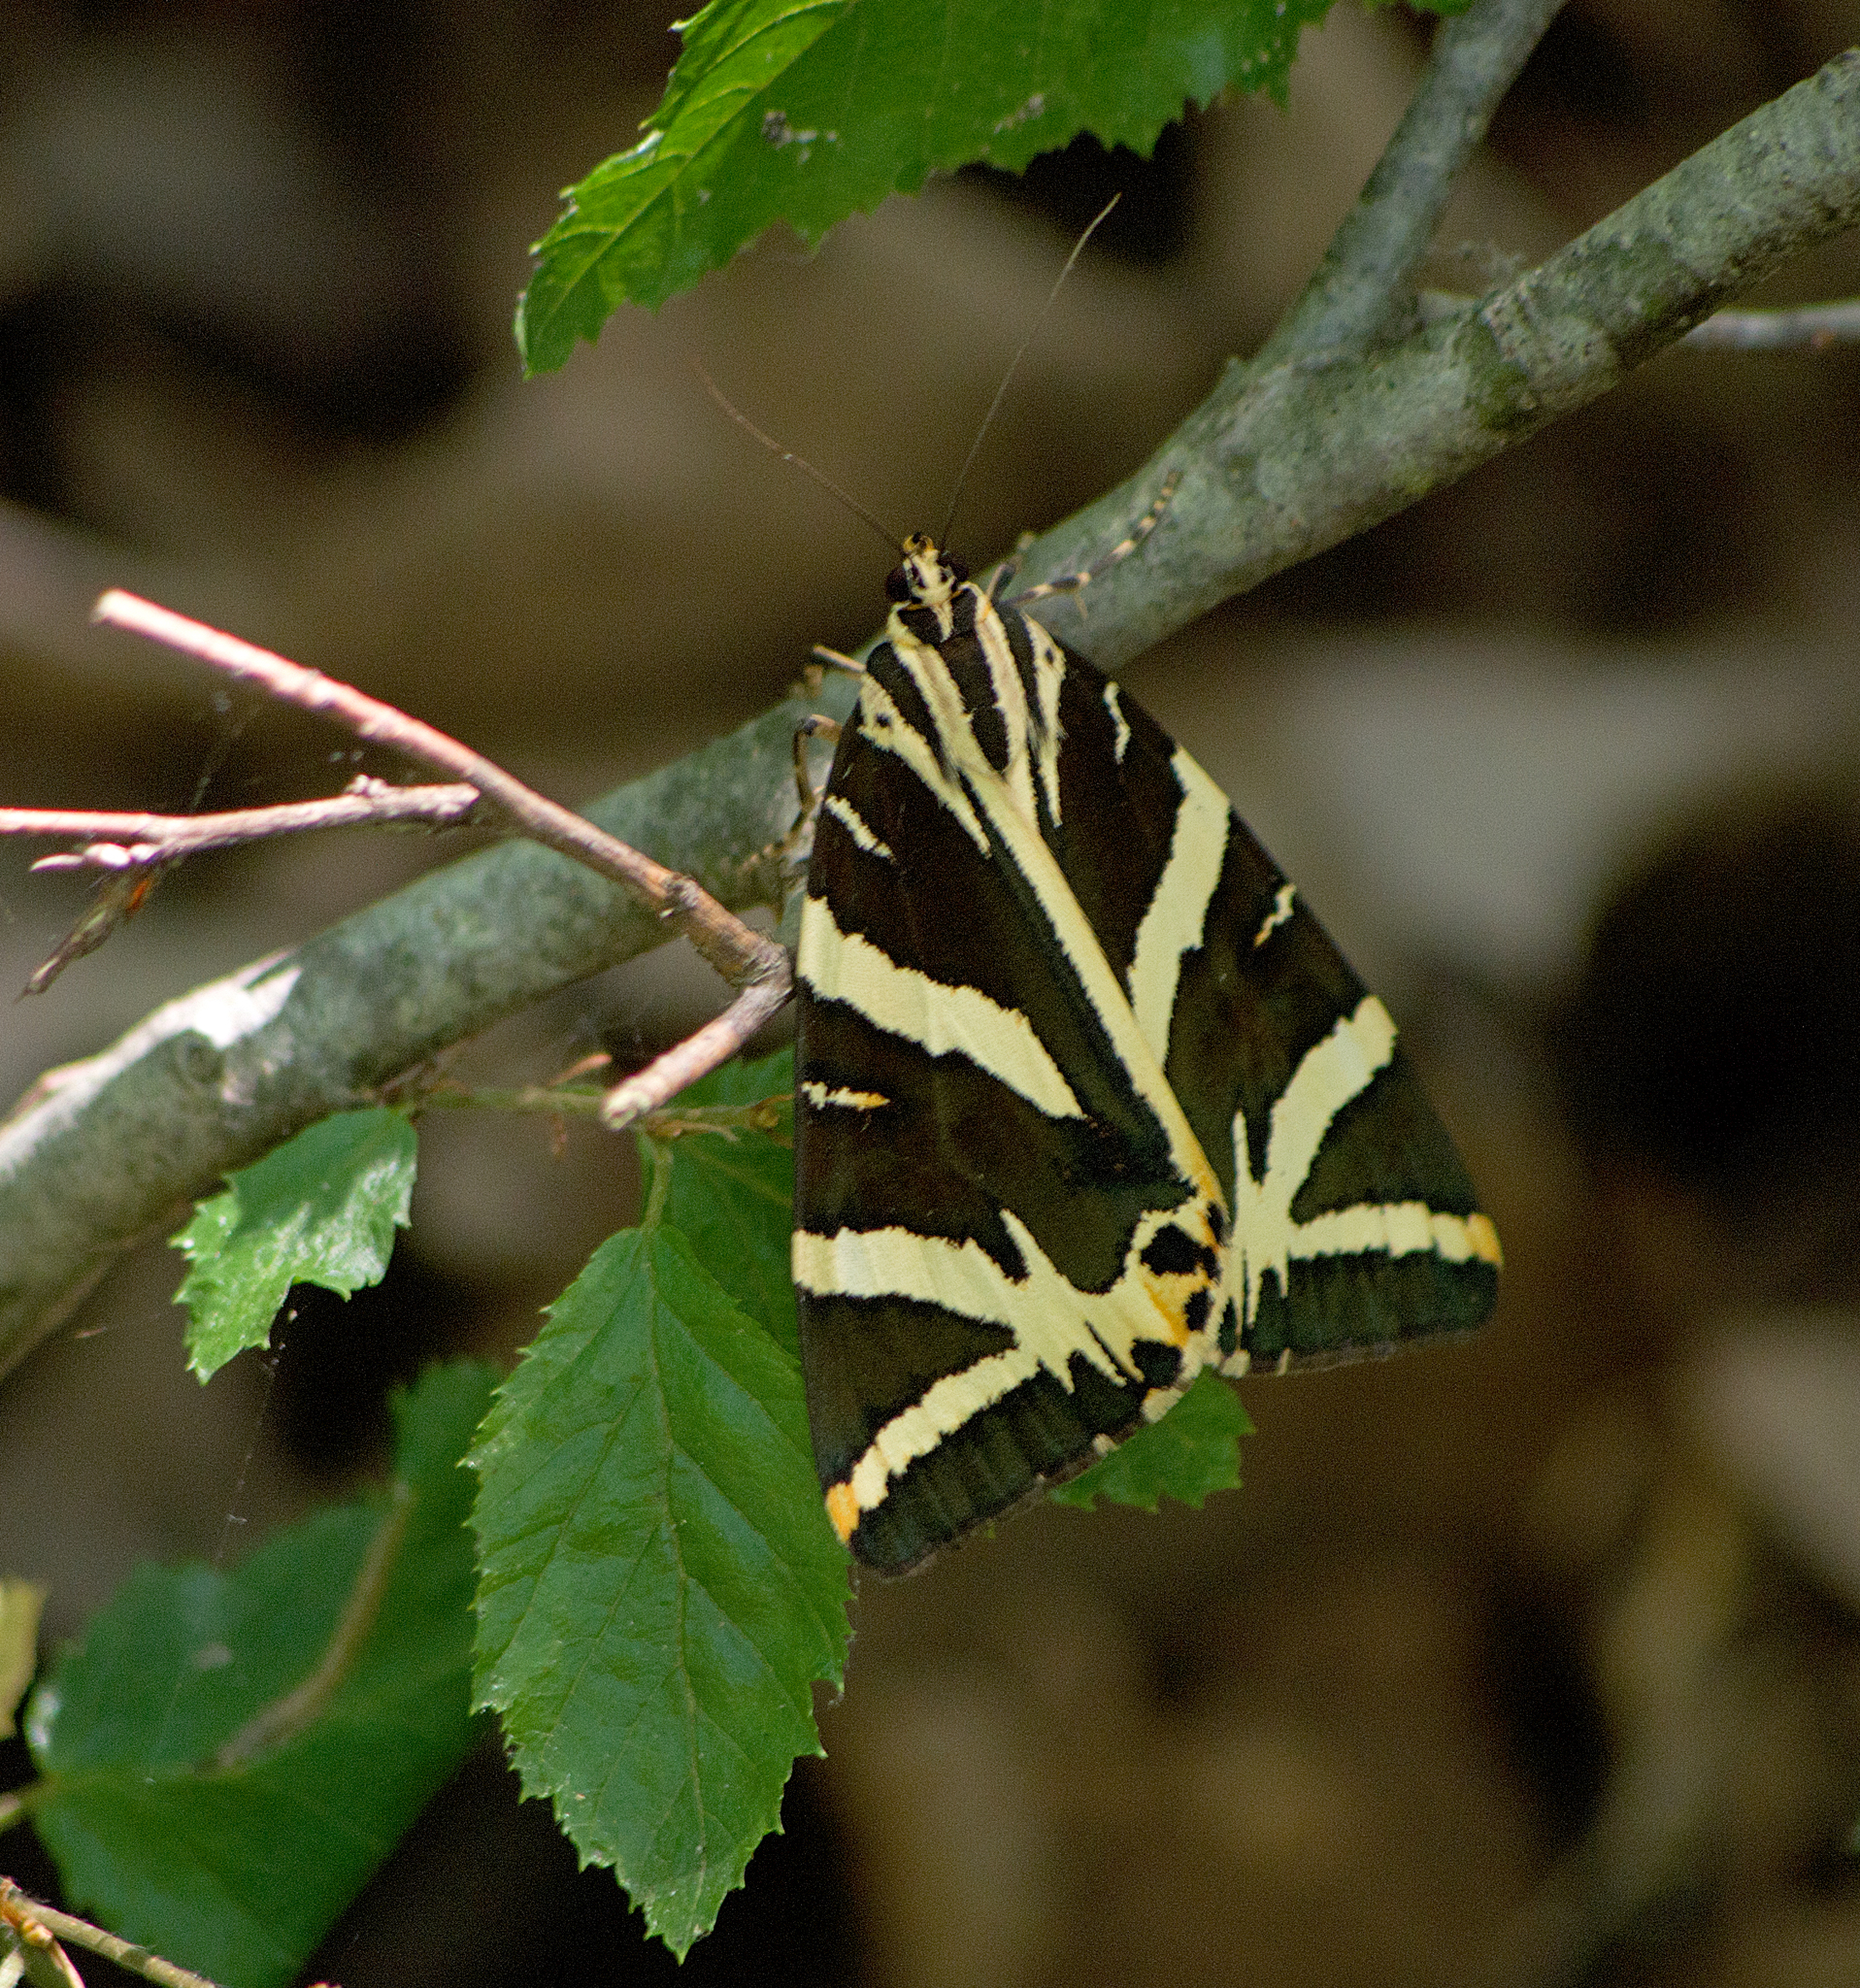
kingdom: Animalia
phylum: Arthropoda
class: Insecta
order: Lepidoptera
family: Erebidae
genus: Euplagia
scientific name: Euplagia quadripunctaria
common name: Jersey tiger
